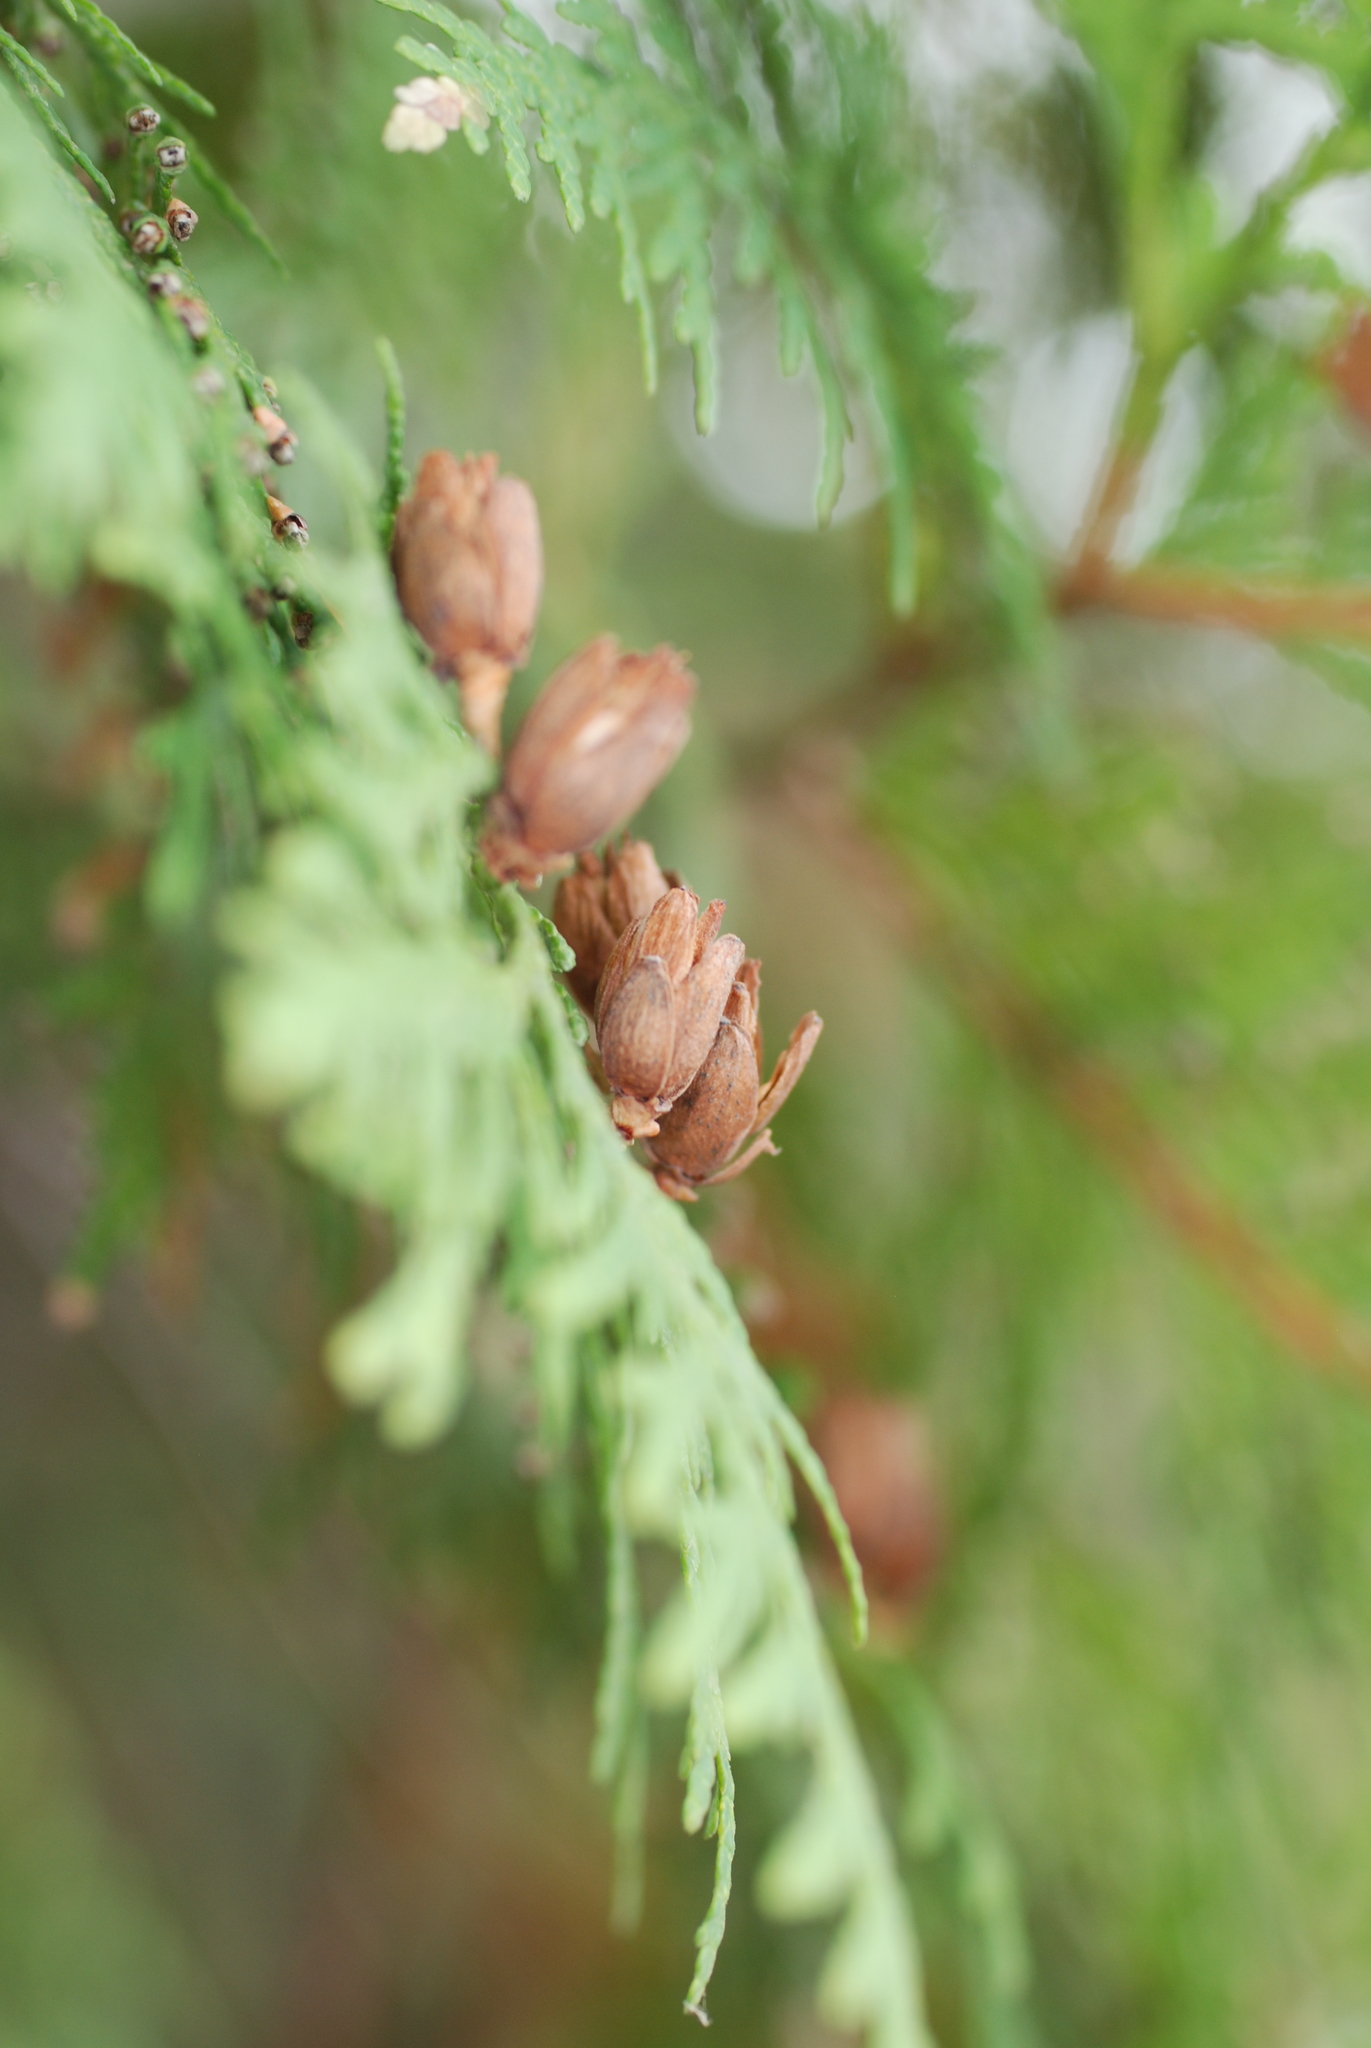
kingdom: Plantae
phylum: Tracheophyta
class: Pinopsida
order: Pinales
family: Cupressaceae
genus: Thuja
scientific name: Thuja occidentalis
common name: Northern white-cedar
